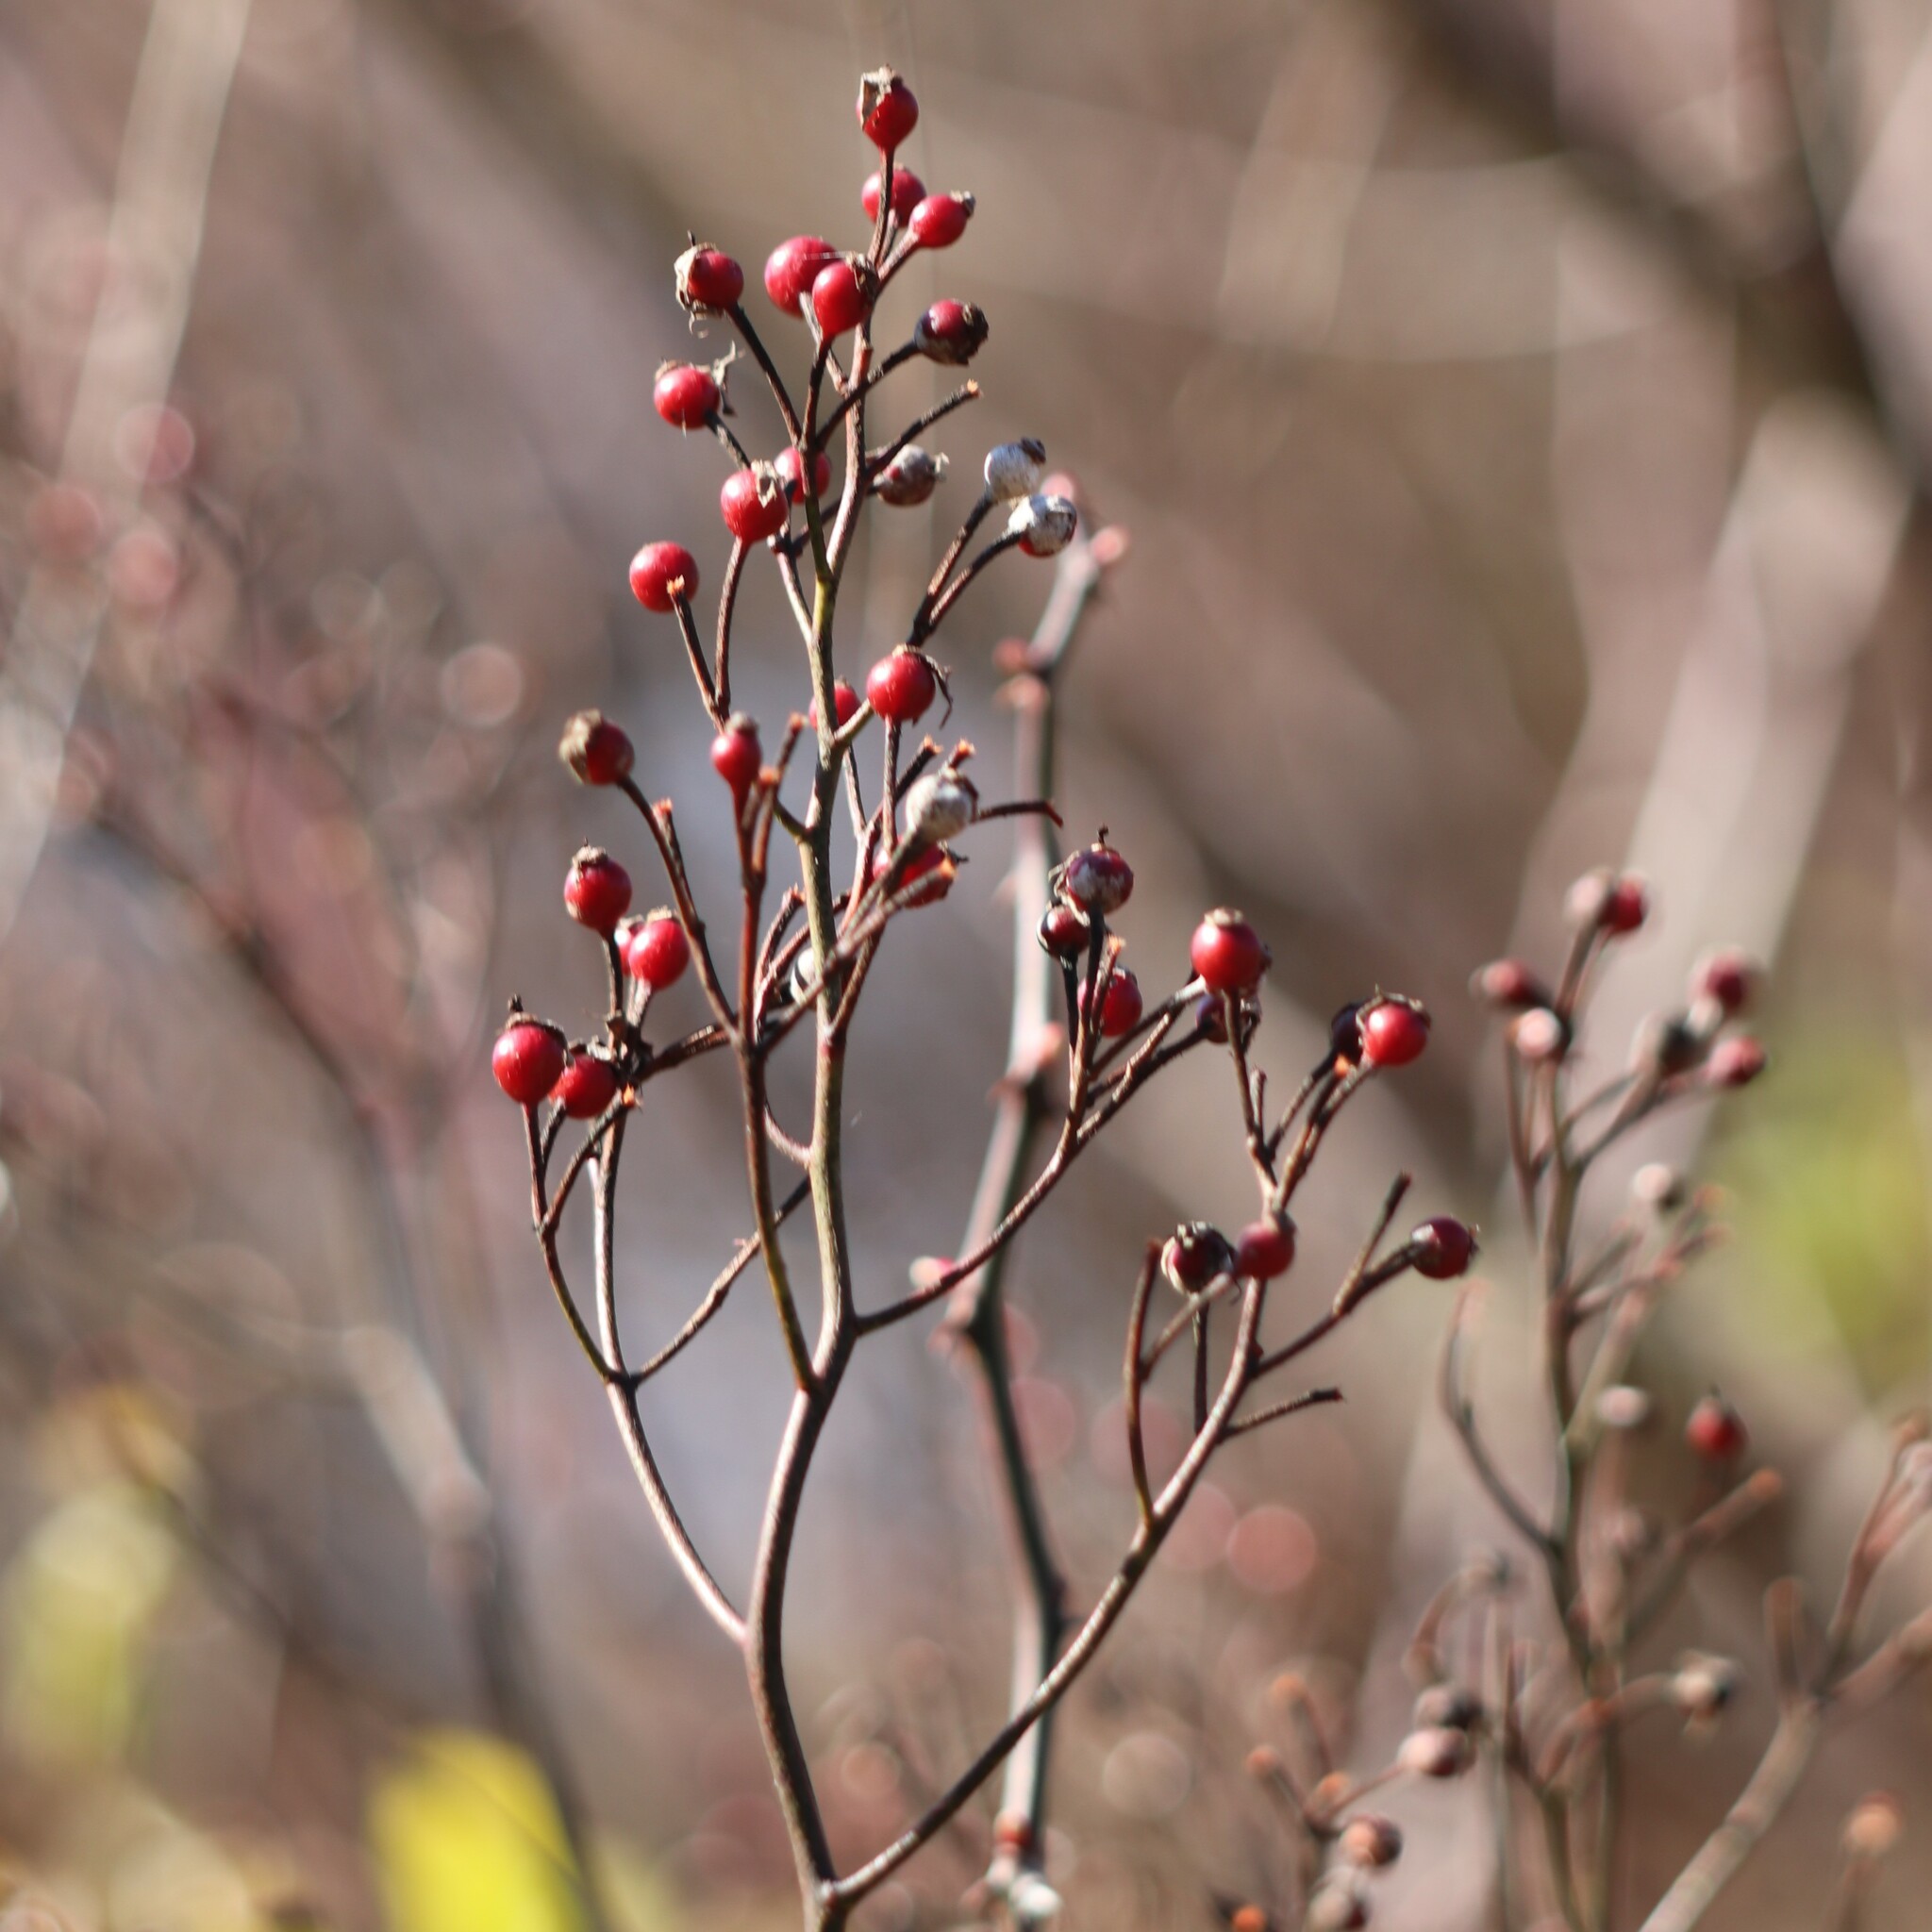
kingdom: Plantae
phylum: Tracheophyta
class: Magnoliopsida
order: Rosales
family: Rosaceae
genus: Rosa
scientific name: Rosa multiflora
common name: Multiflora rose
